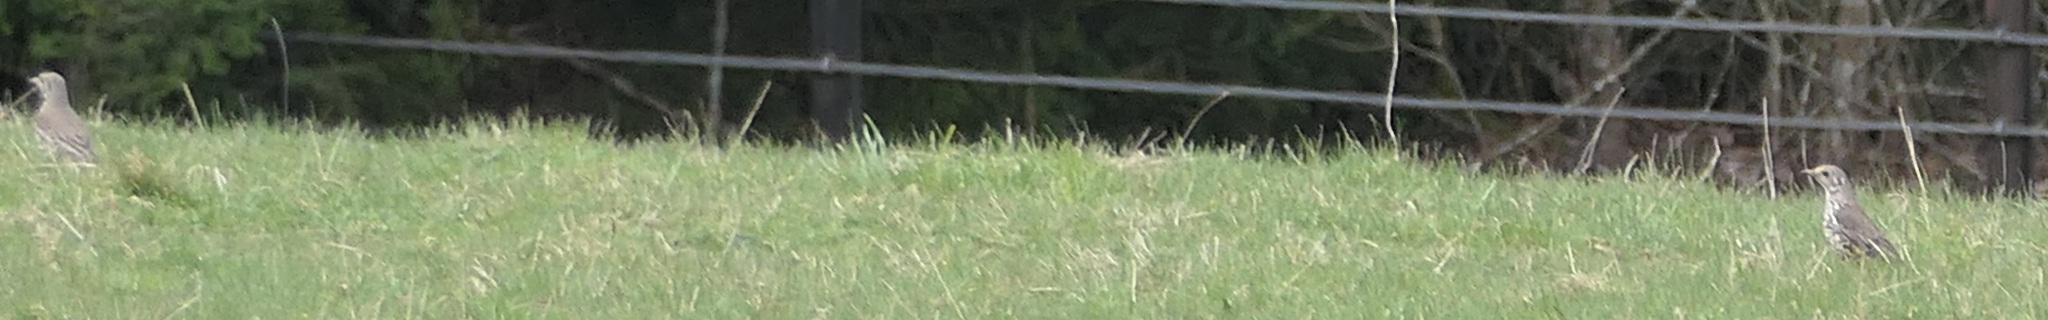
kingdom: Animalia
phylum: Chordata
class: Aves
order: Passeriformes
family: Turdidae
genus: Turdus
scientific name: Turdus viscivorus
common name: Mistle thrush
